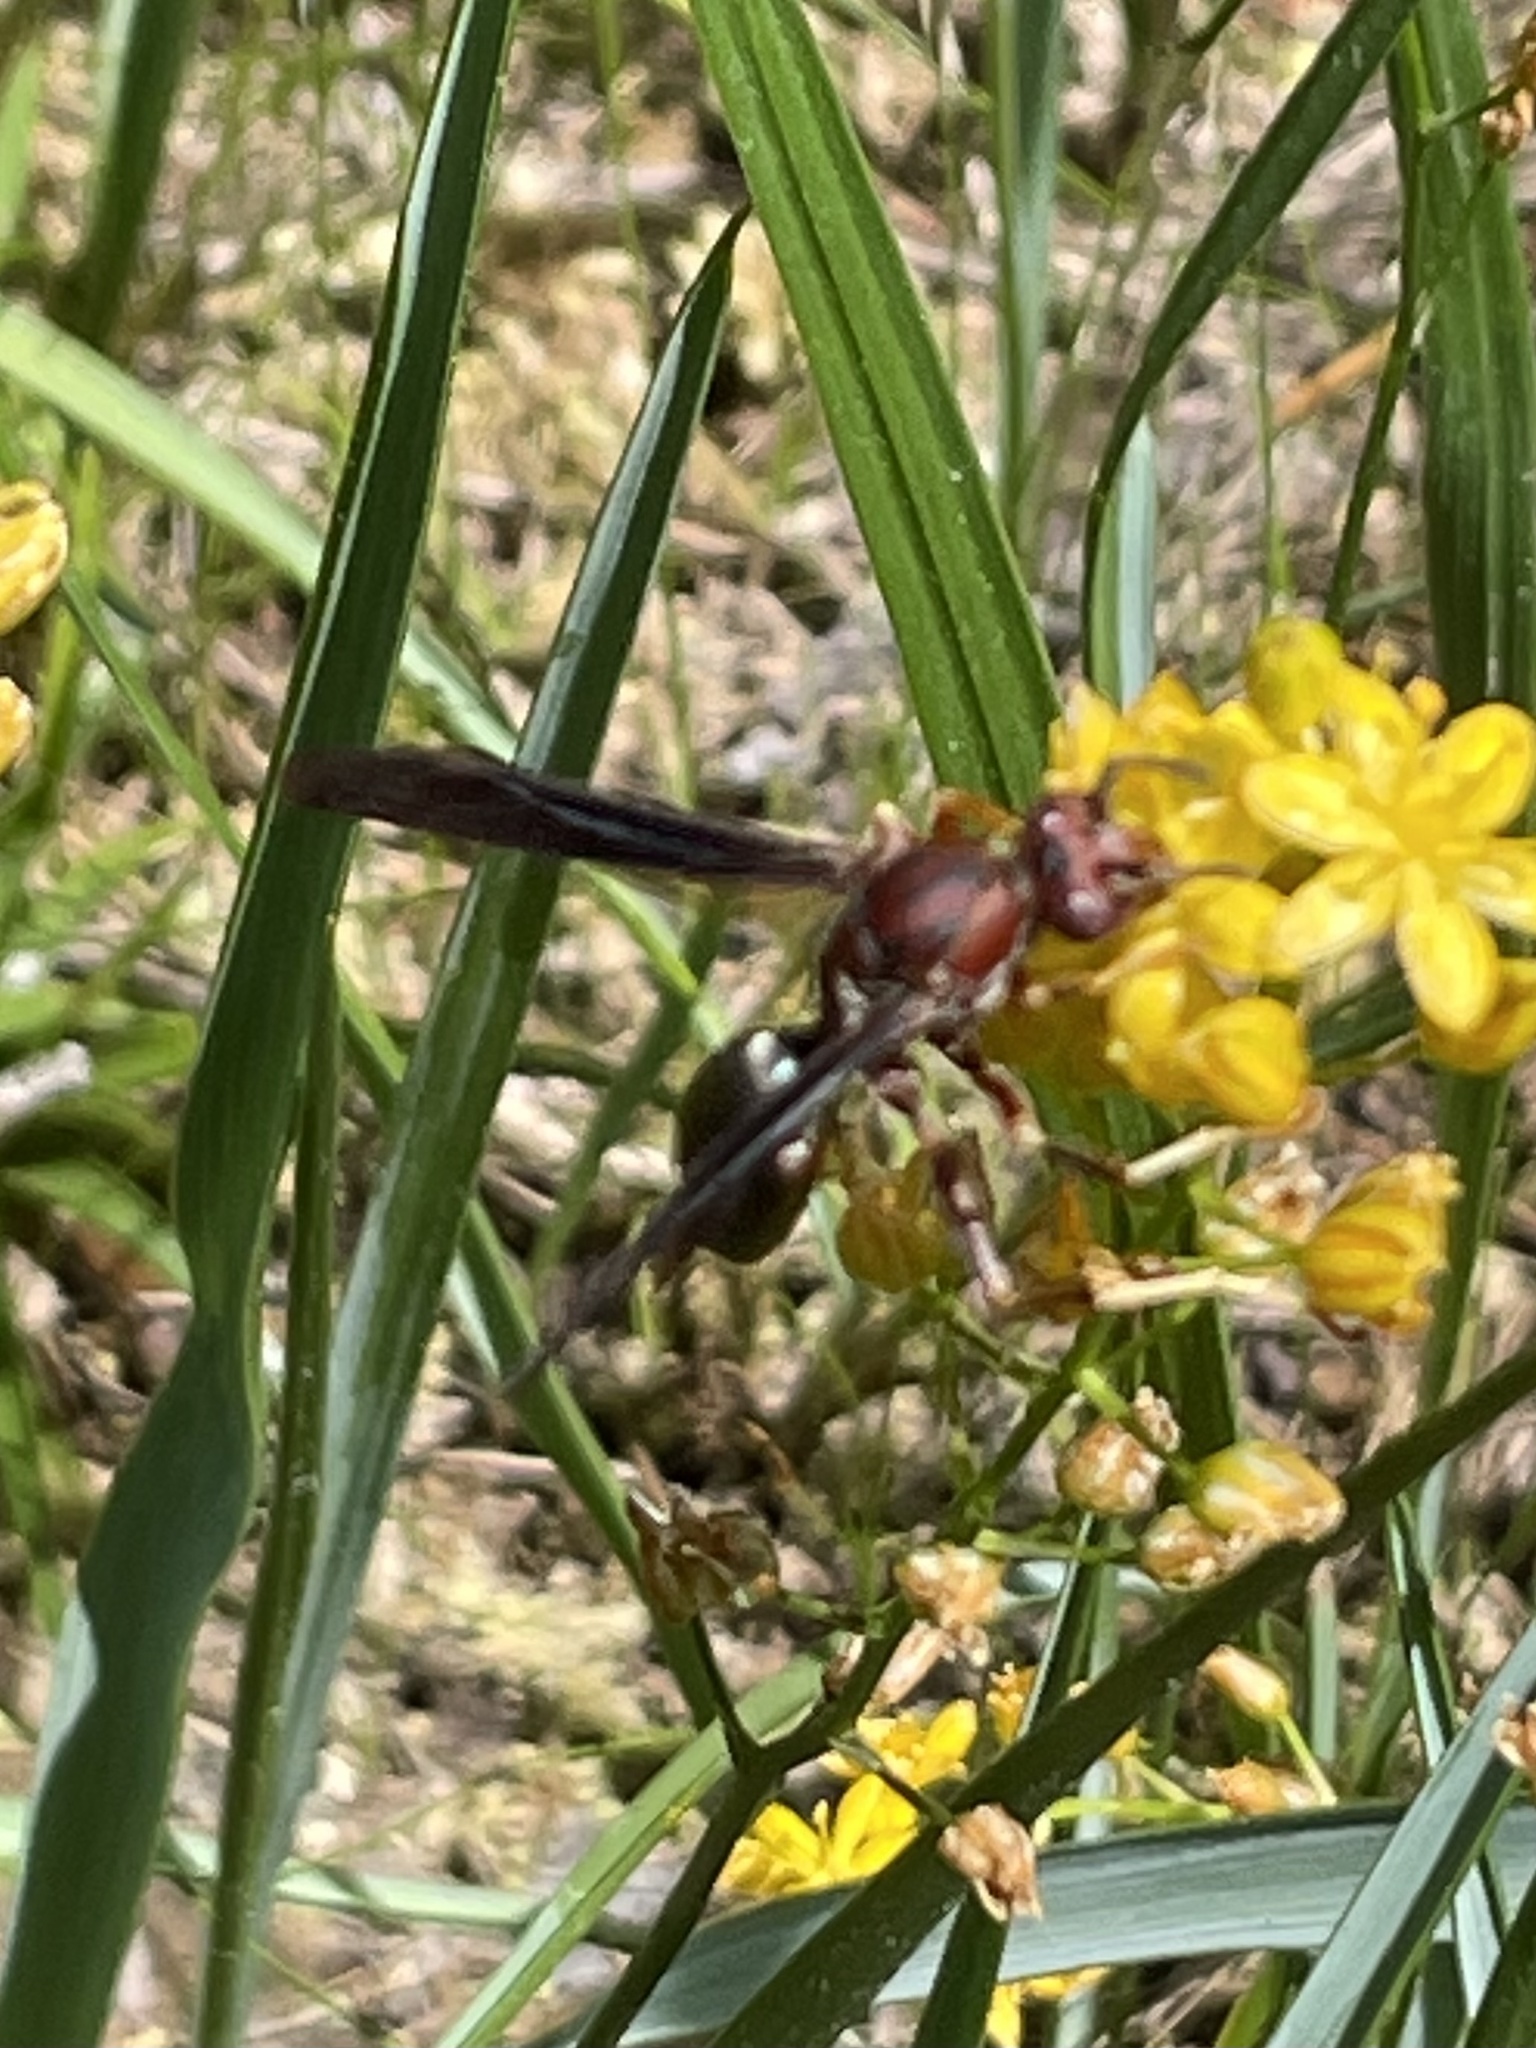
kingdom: Animalia
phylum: Arthropoda
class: Insecta
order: Hymenoptera
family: Eumenidae
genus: Polistes
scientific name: Polistes metricus
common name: Metric paper wasp
